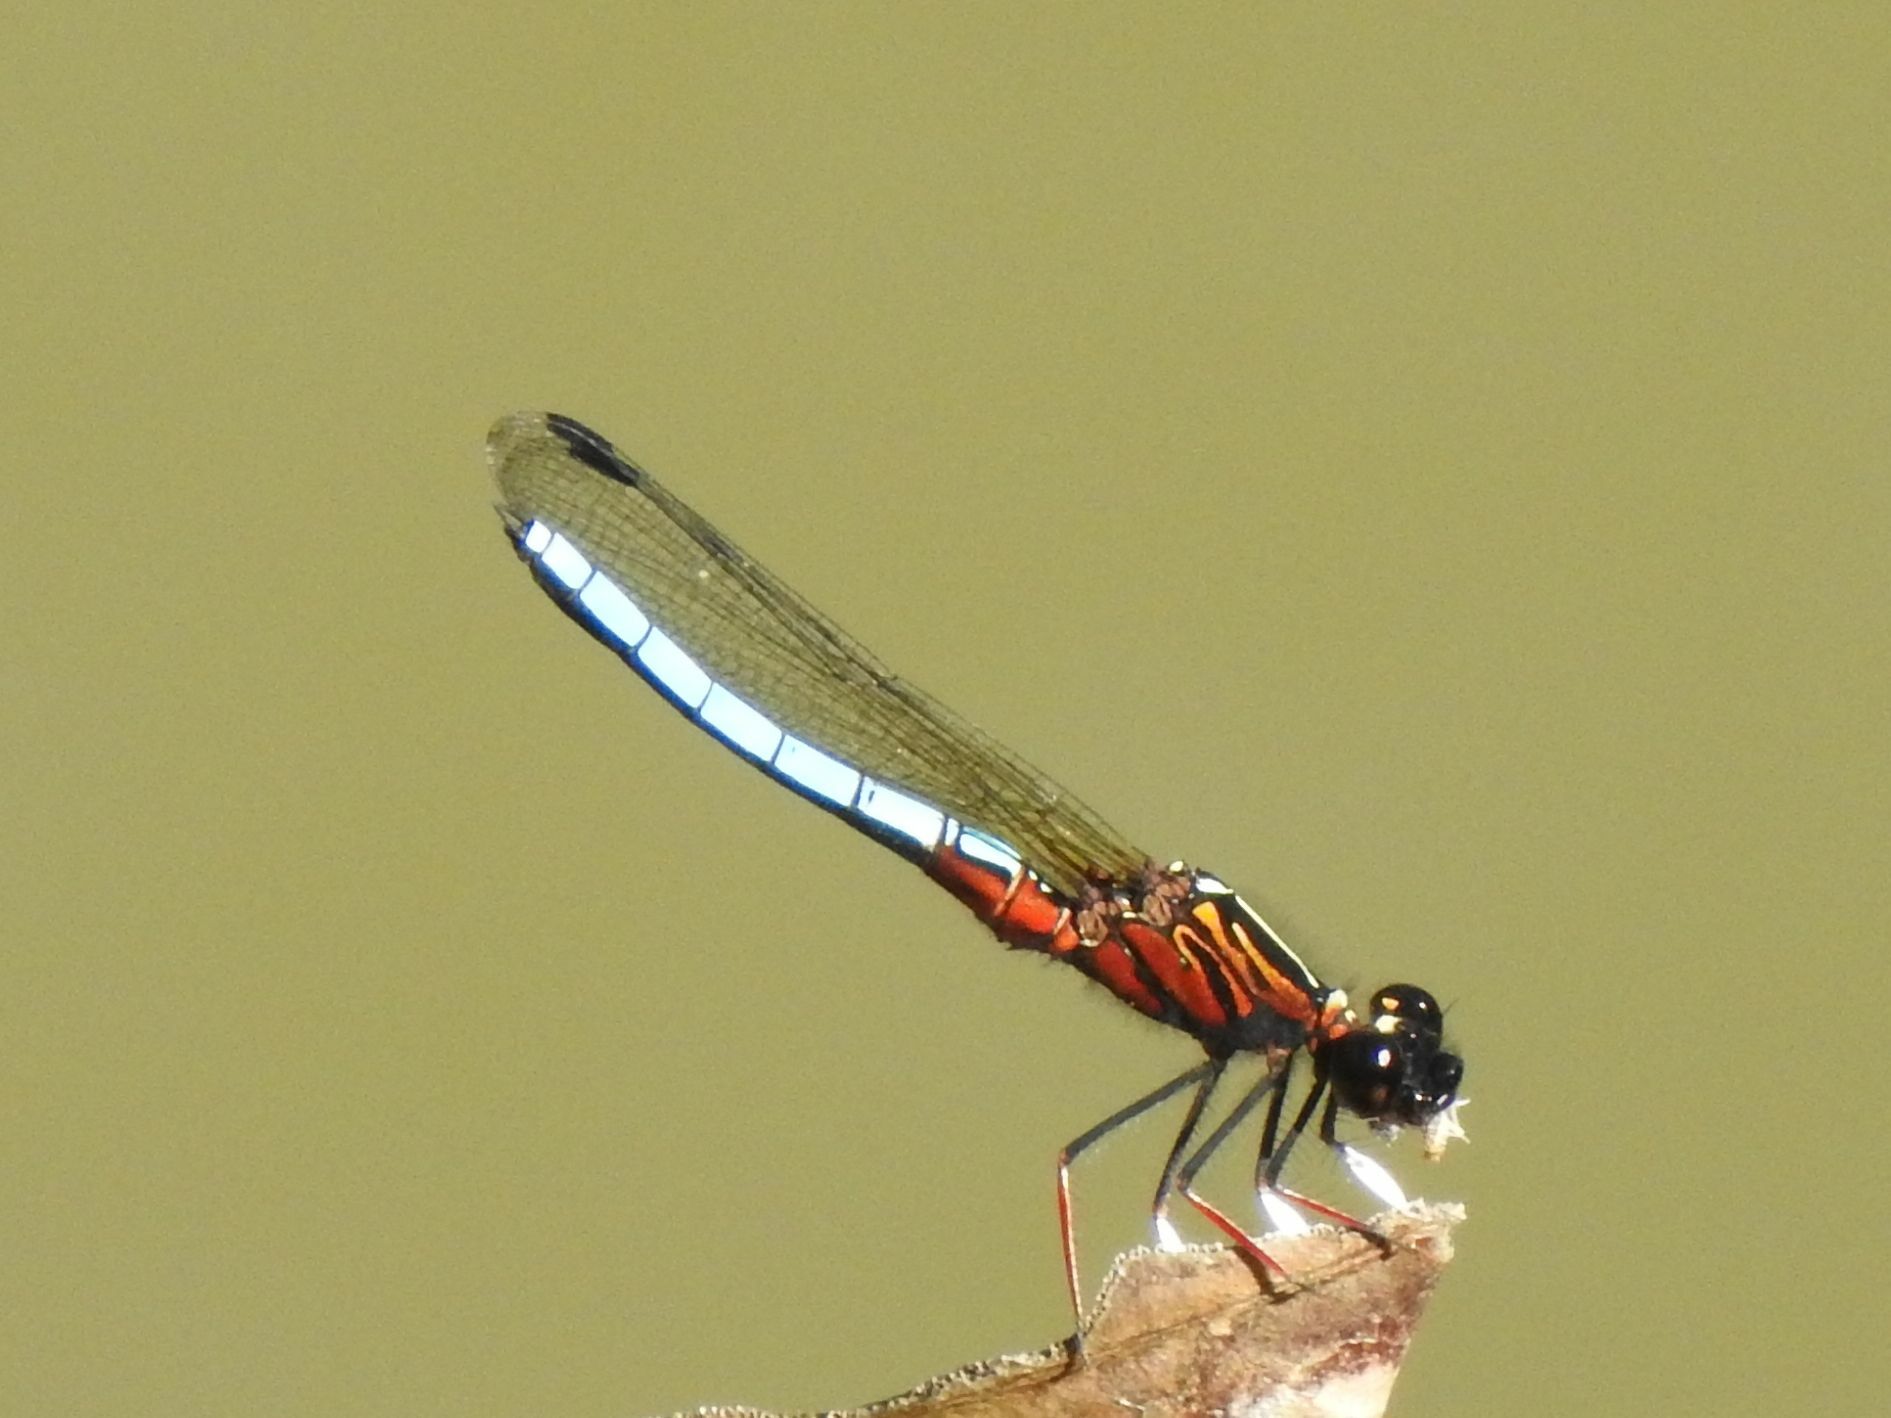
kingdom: Animalia
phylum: Arthropoda
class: Insecta
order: Odonata
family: Chlorocyphidae
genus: Platycypha
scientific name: Platycypha caligata
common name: Dancing jewel
